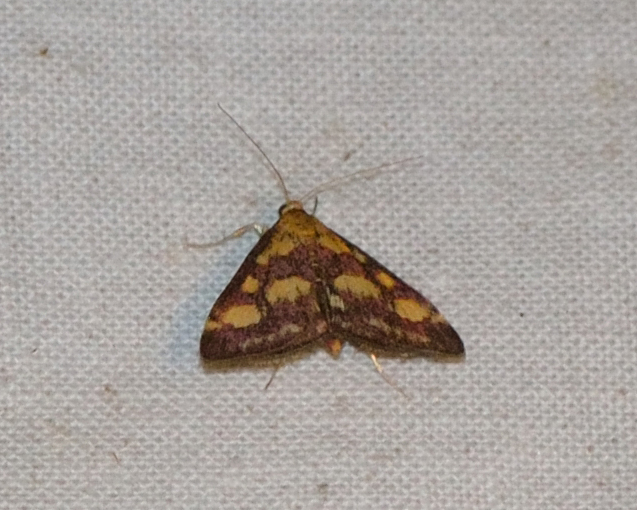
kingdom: Animalia
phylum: Arthropoda
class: Insecta
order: Lepidoptera
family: Crambidae
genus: Pyrausta
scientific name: Pyrausta purpuralis
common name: Common purple & gold
